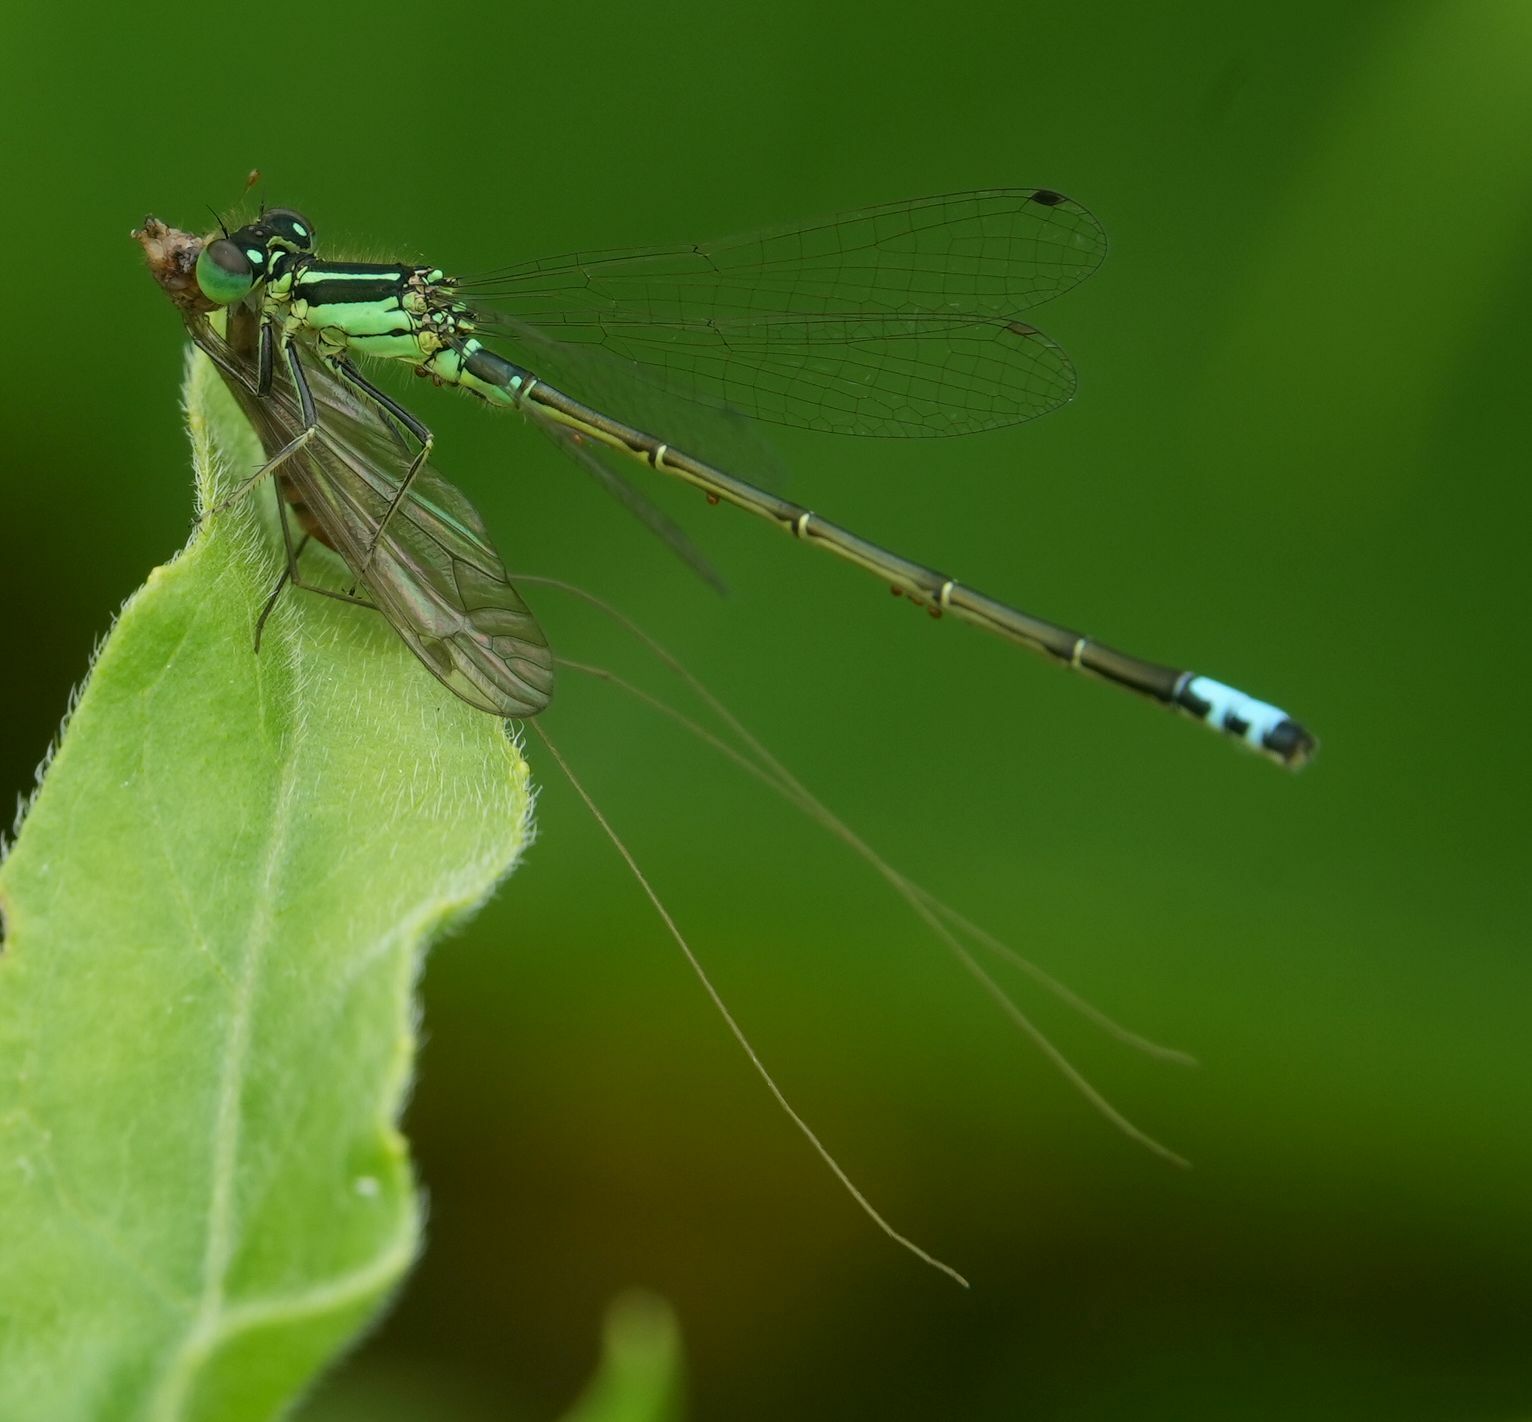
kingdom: Animalia
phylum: Arthropoda
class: Insecta
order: Odonata
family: Coenagrionidae
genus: Ischnura
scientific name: Ischnura verticalis
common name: Eastern forktail
